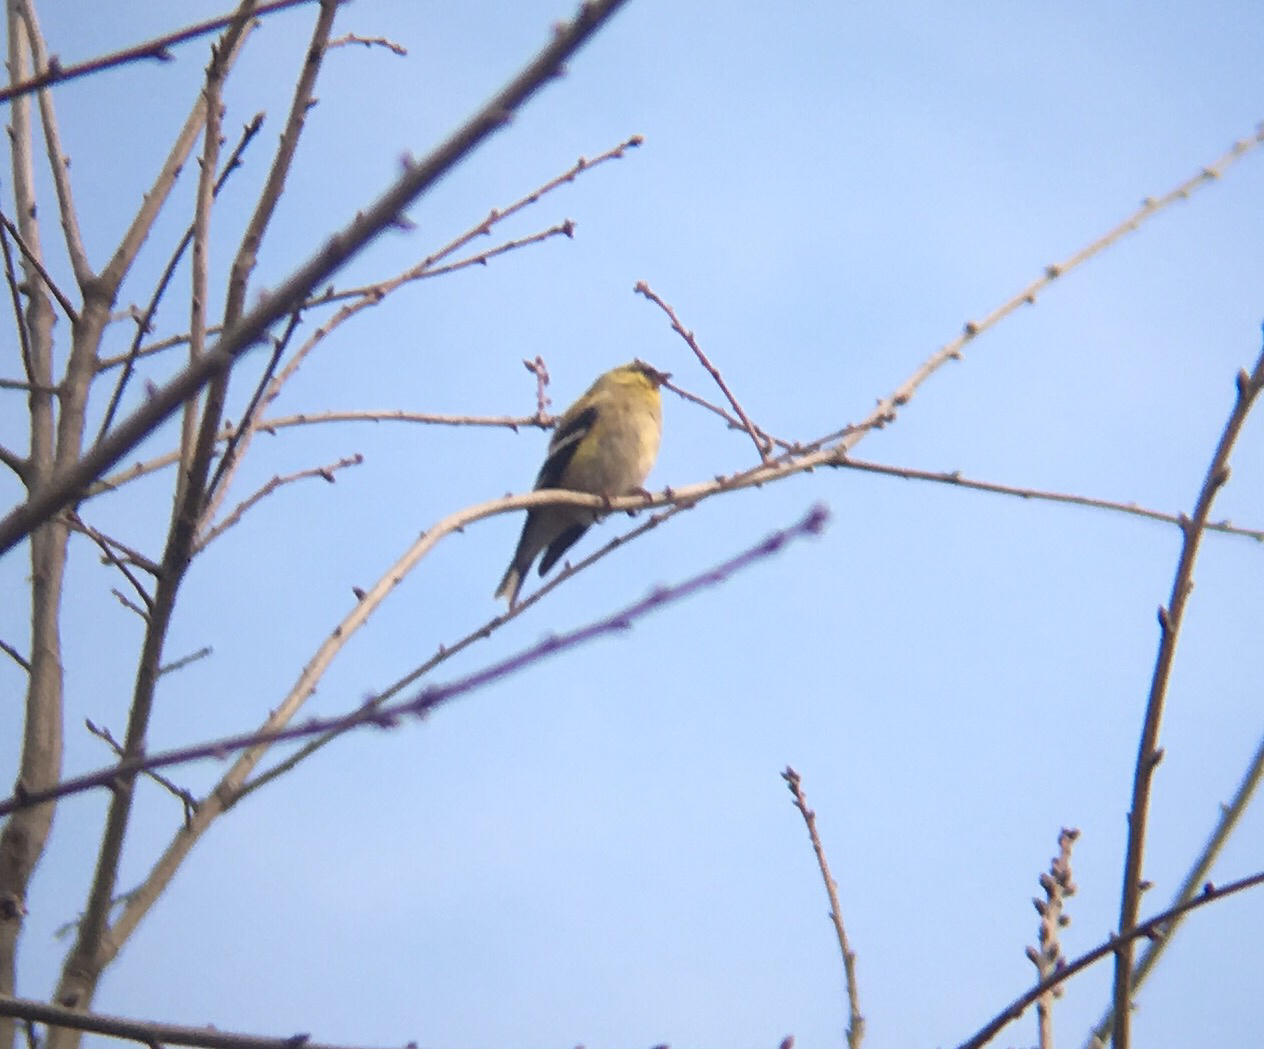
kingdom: Animalia
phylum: Chordata
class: Aves
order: Passeriformes
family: Fringillidae
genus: Spinus
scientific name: Spinus tristis
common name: American goldfinch
